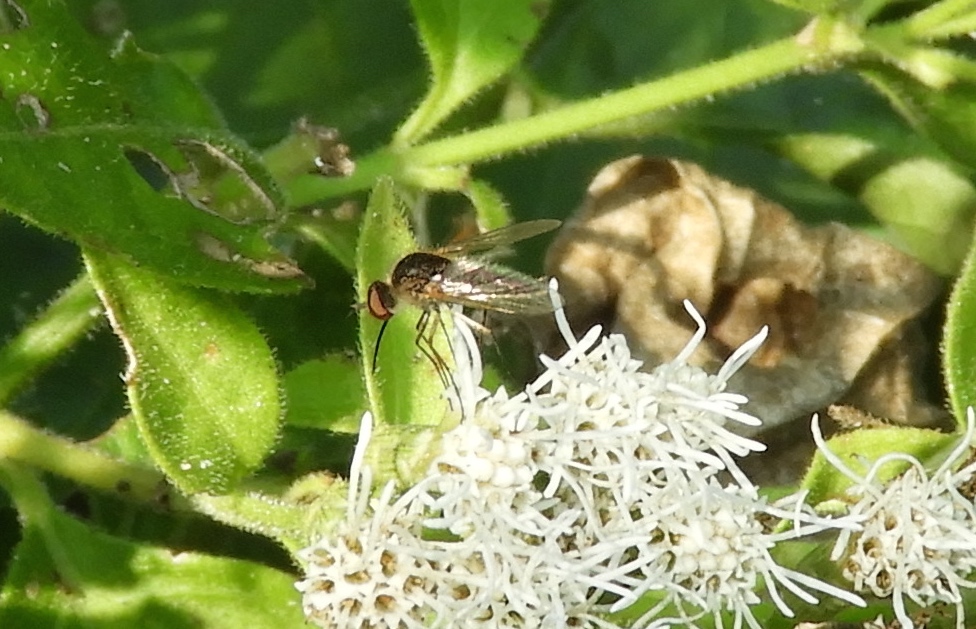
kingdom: Animalia
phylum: Arthropoda
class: Insecta
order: Diptera
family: Bombyliidae
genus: Geron
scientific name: Geron
